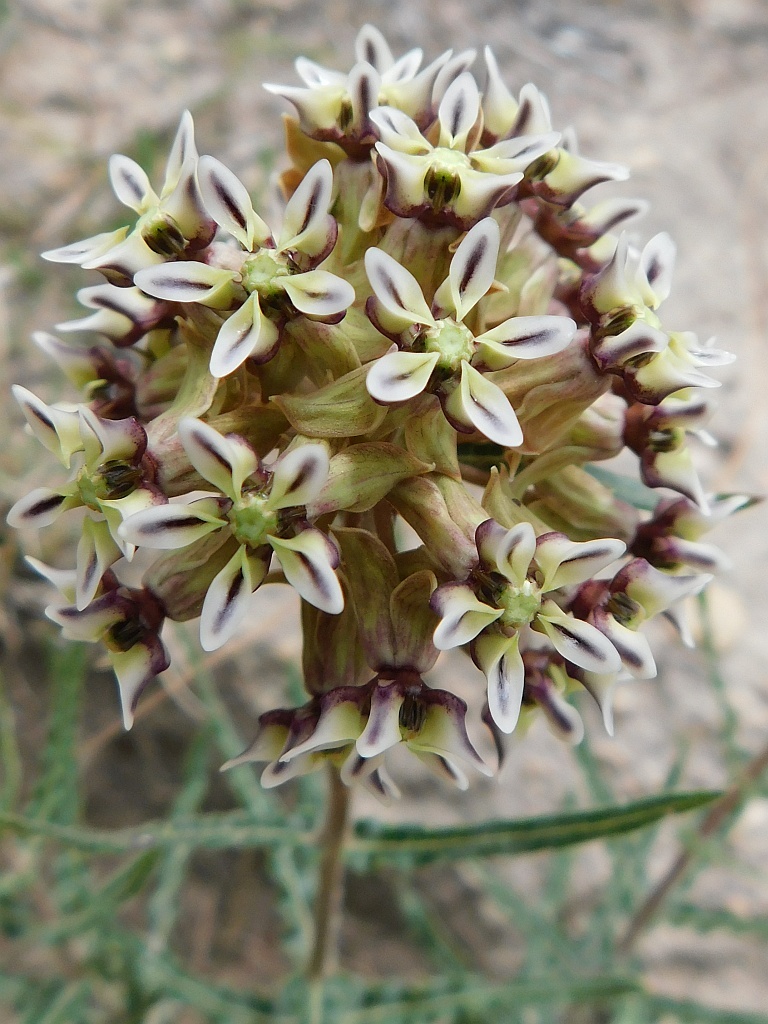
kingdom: Plantae
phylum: Tracheophyta
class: Magnoliopsida
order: Gentianales
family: Apocynaceae
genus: Asclepias
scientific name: Asclepias crispa
